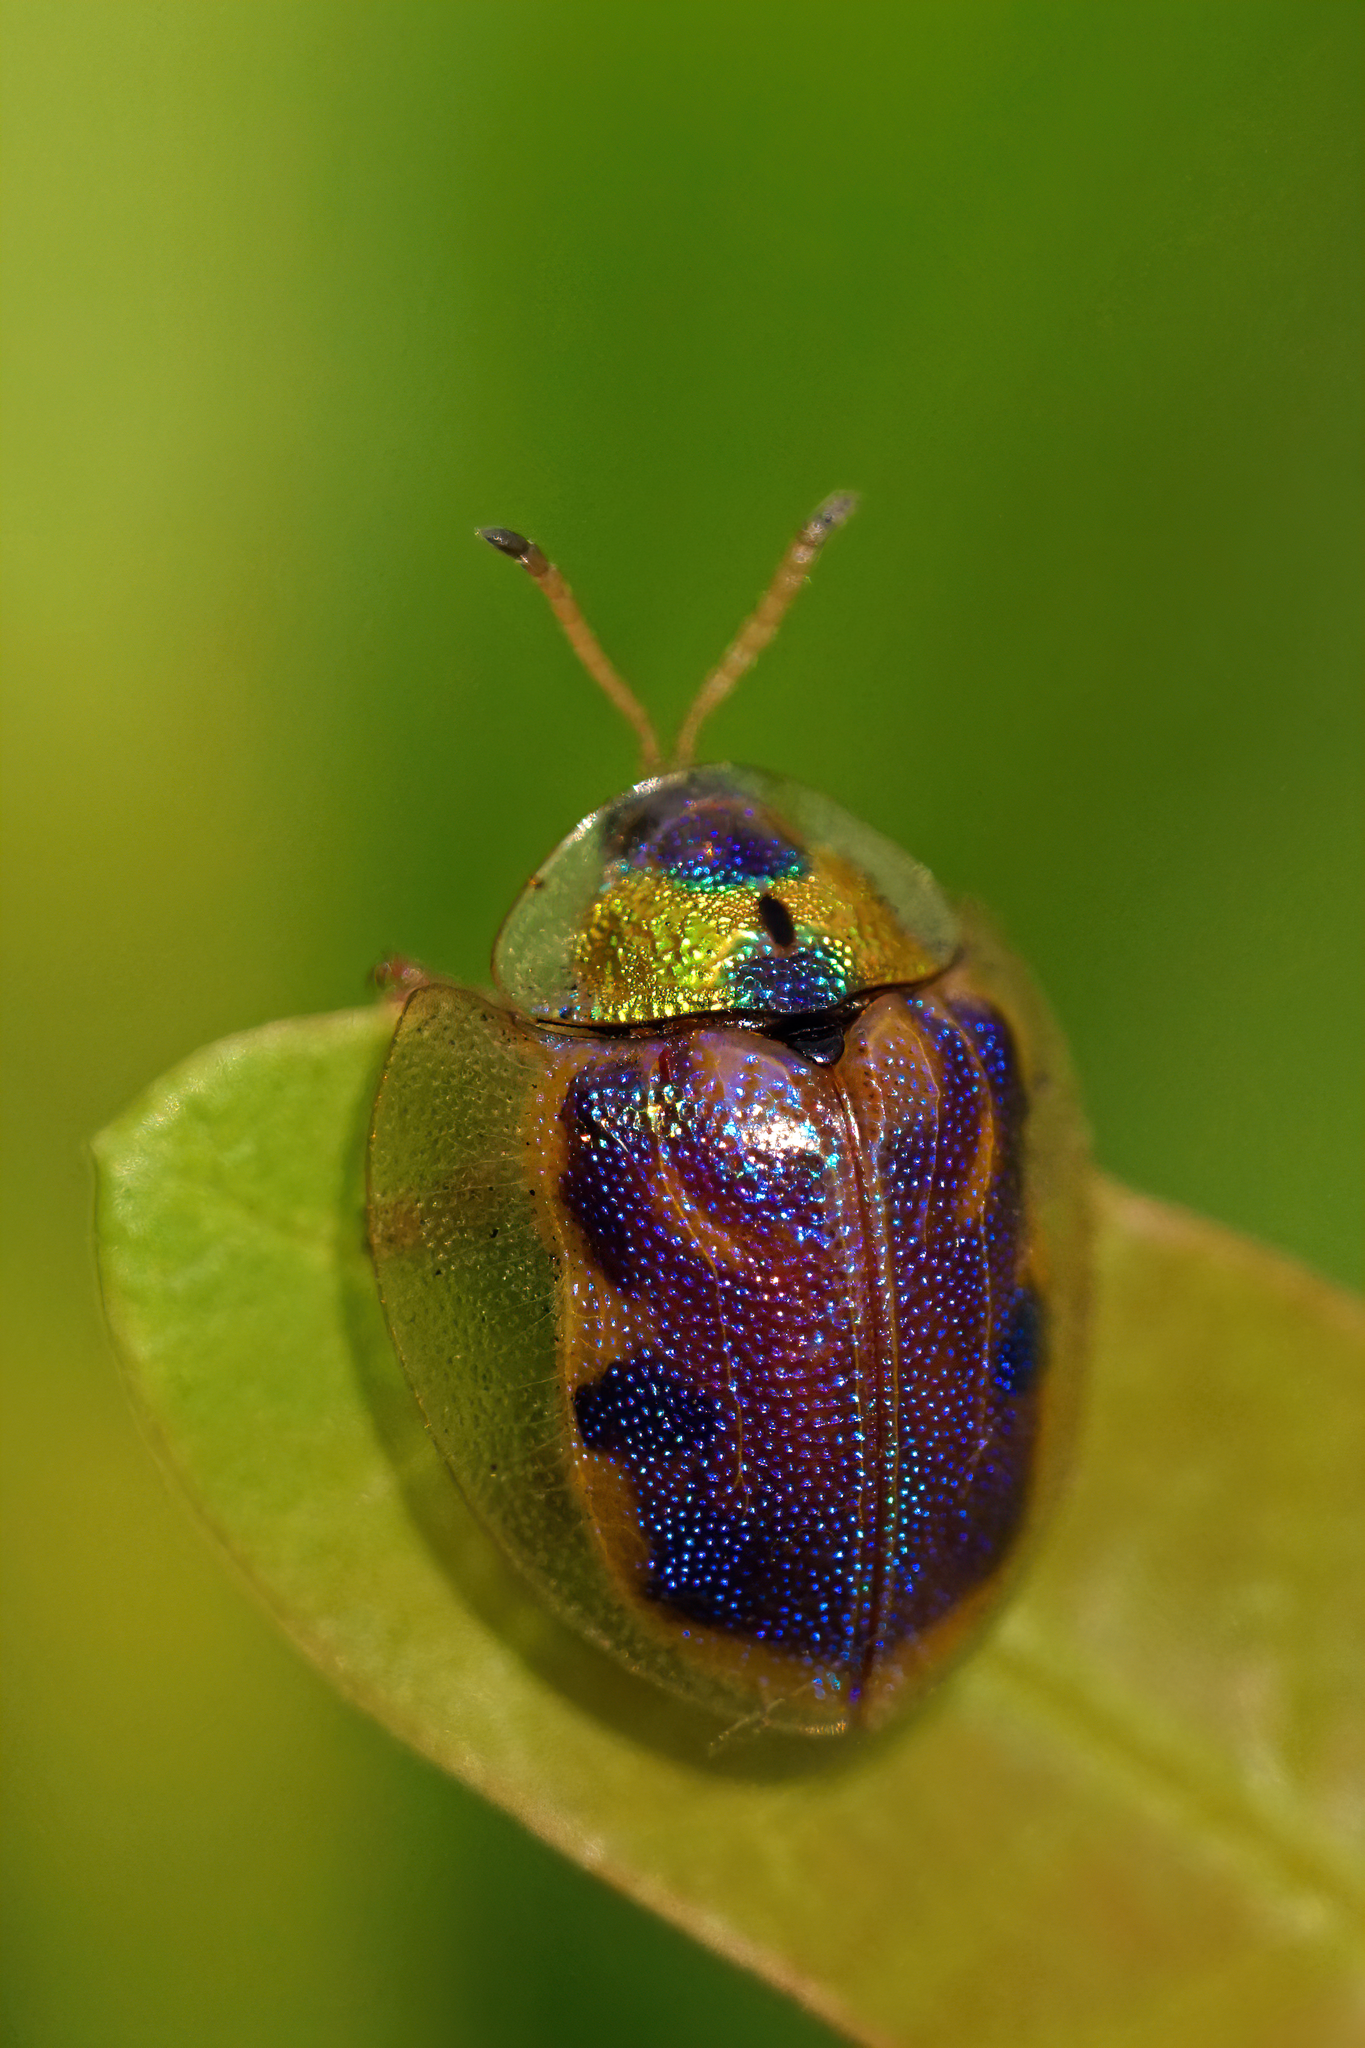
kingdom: Animalia
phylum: Arthropoda
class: Insecta
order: Coleoptera
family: Chrysomelidae
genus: Eurypepla
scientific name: Eurypepla calochroma
